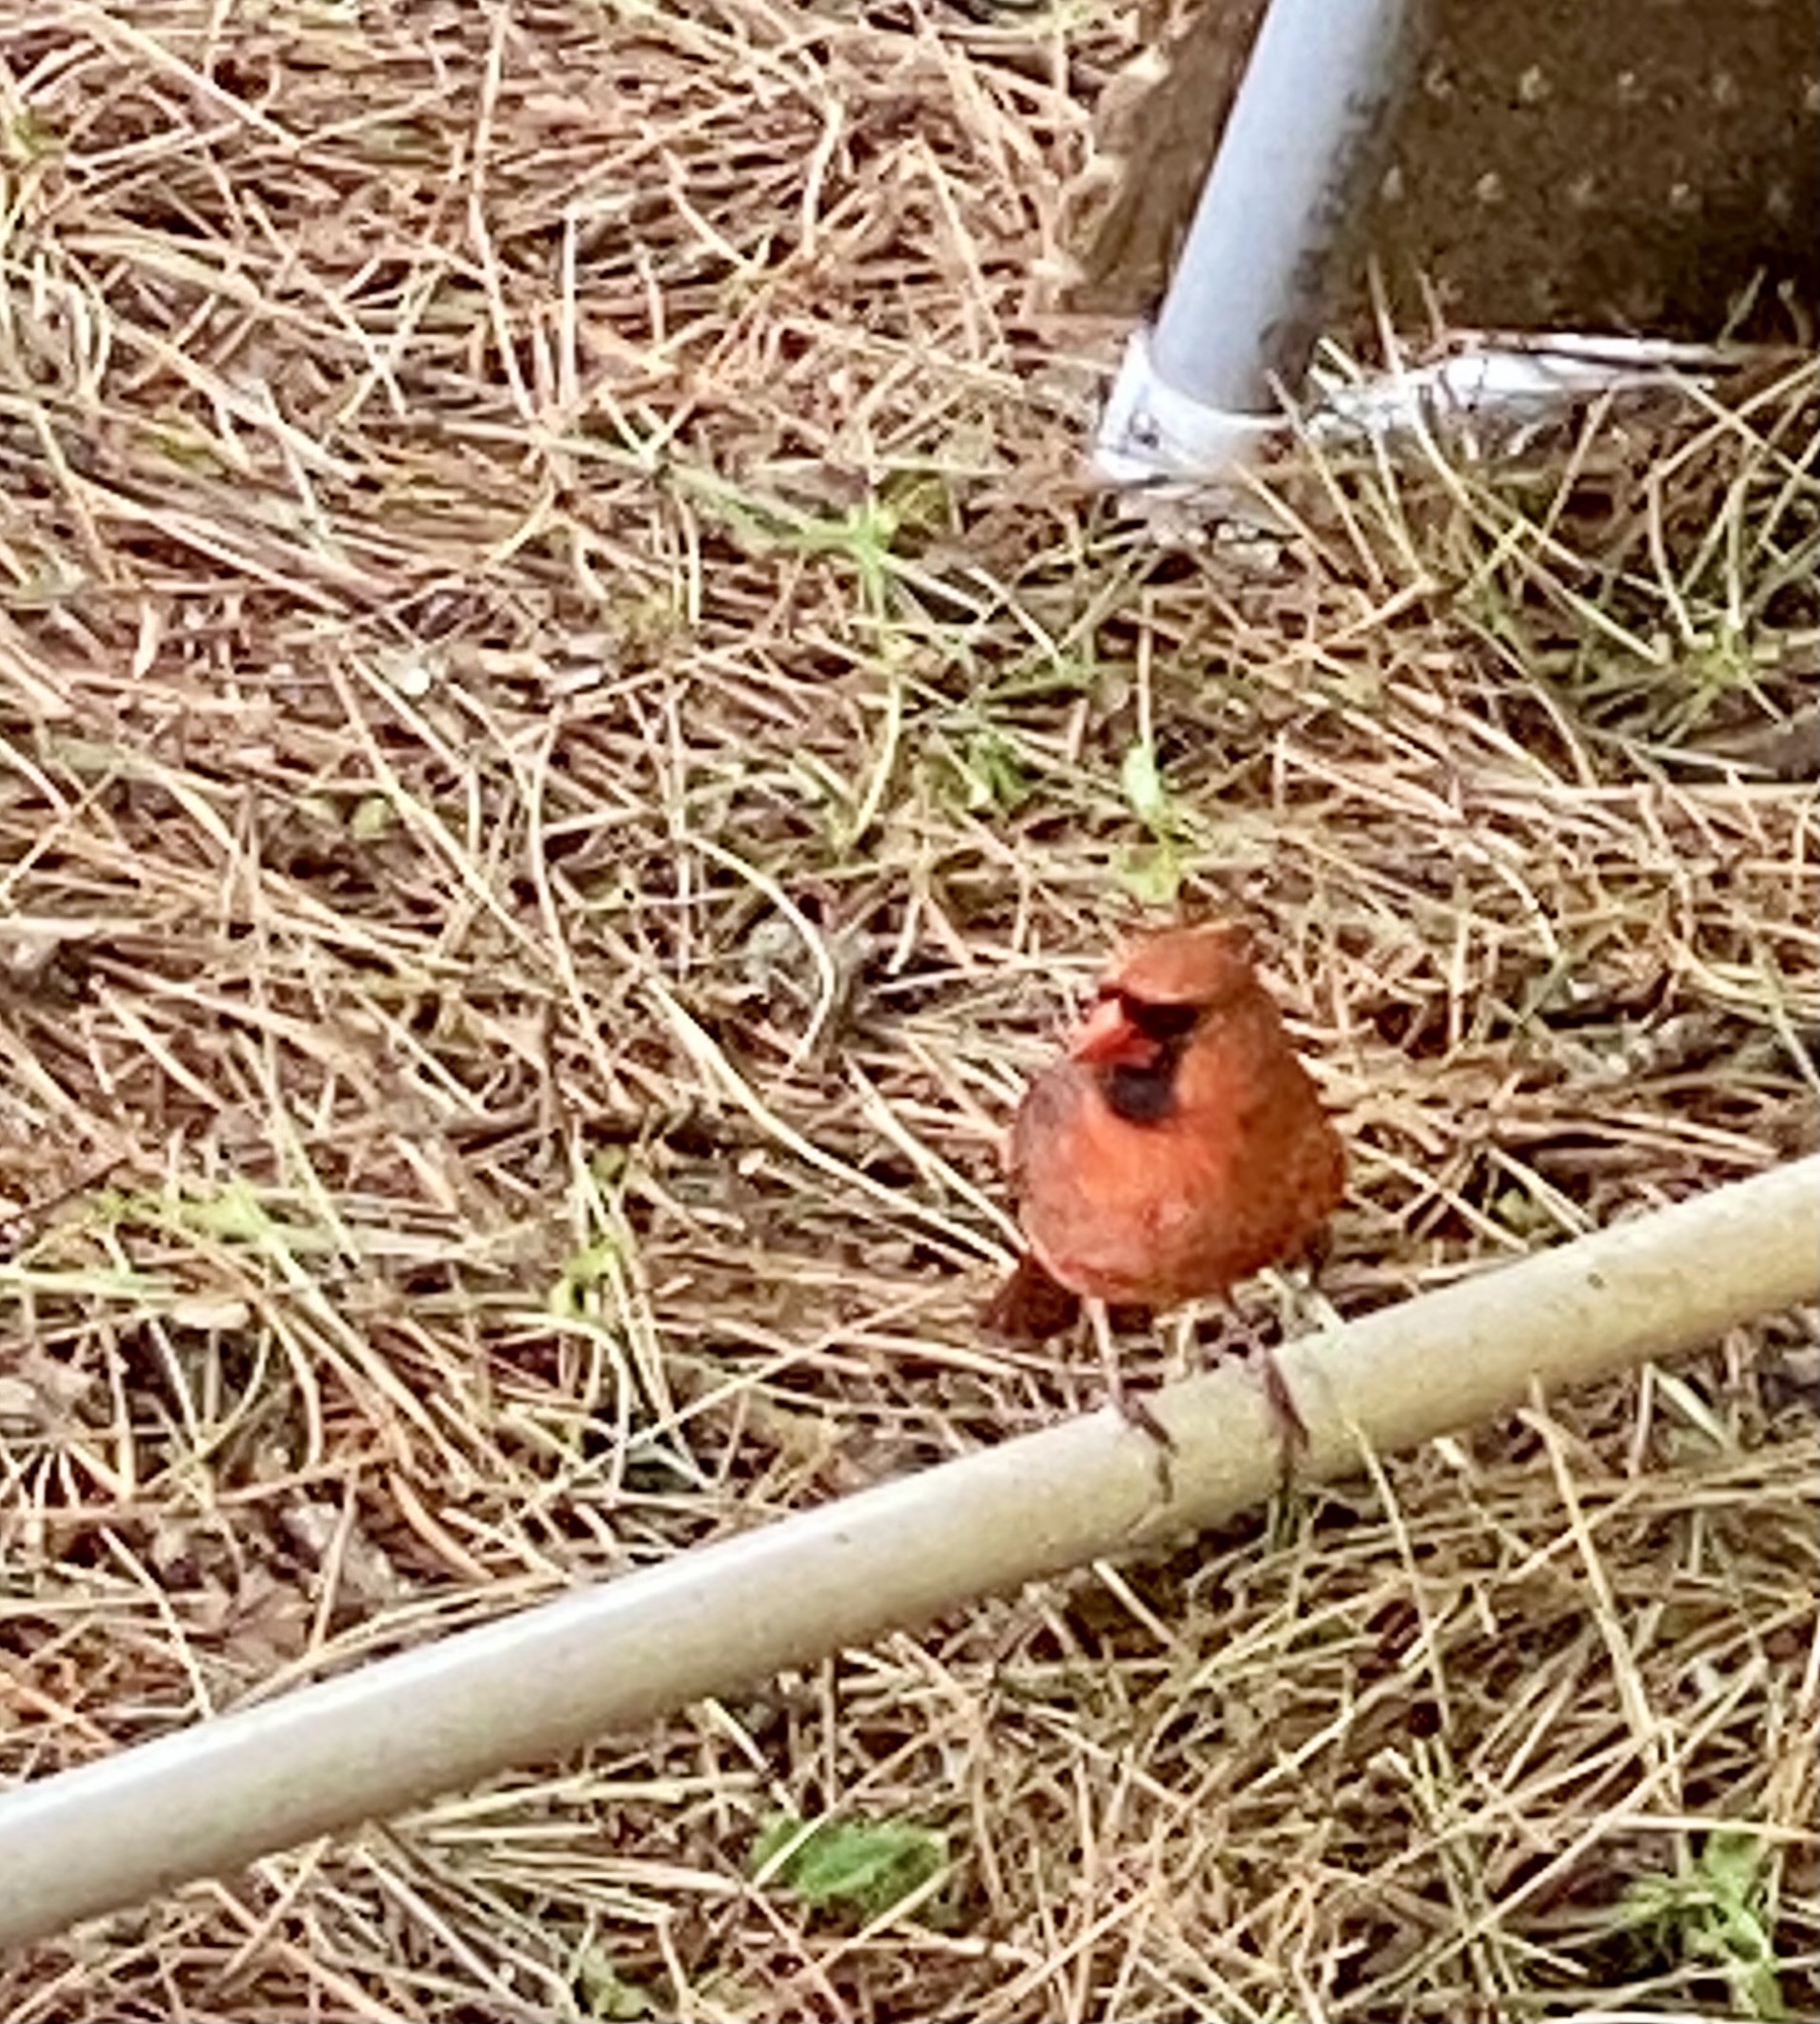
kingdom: Animalia
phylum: Chordata
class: Aves
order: Passeriformes
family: Cardinalidae
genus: Cardinalis
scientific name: Cardinalis cardinalis
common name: Northern cardinal
